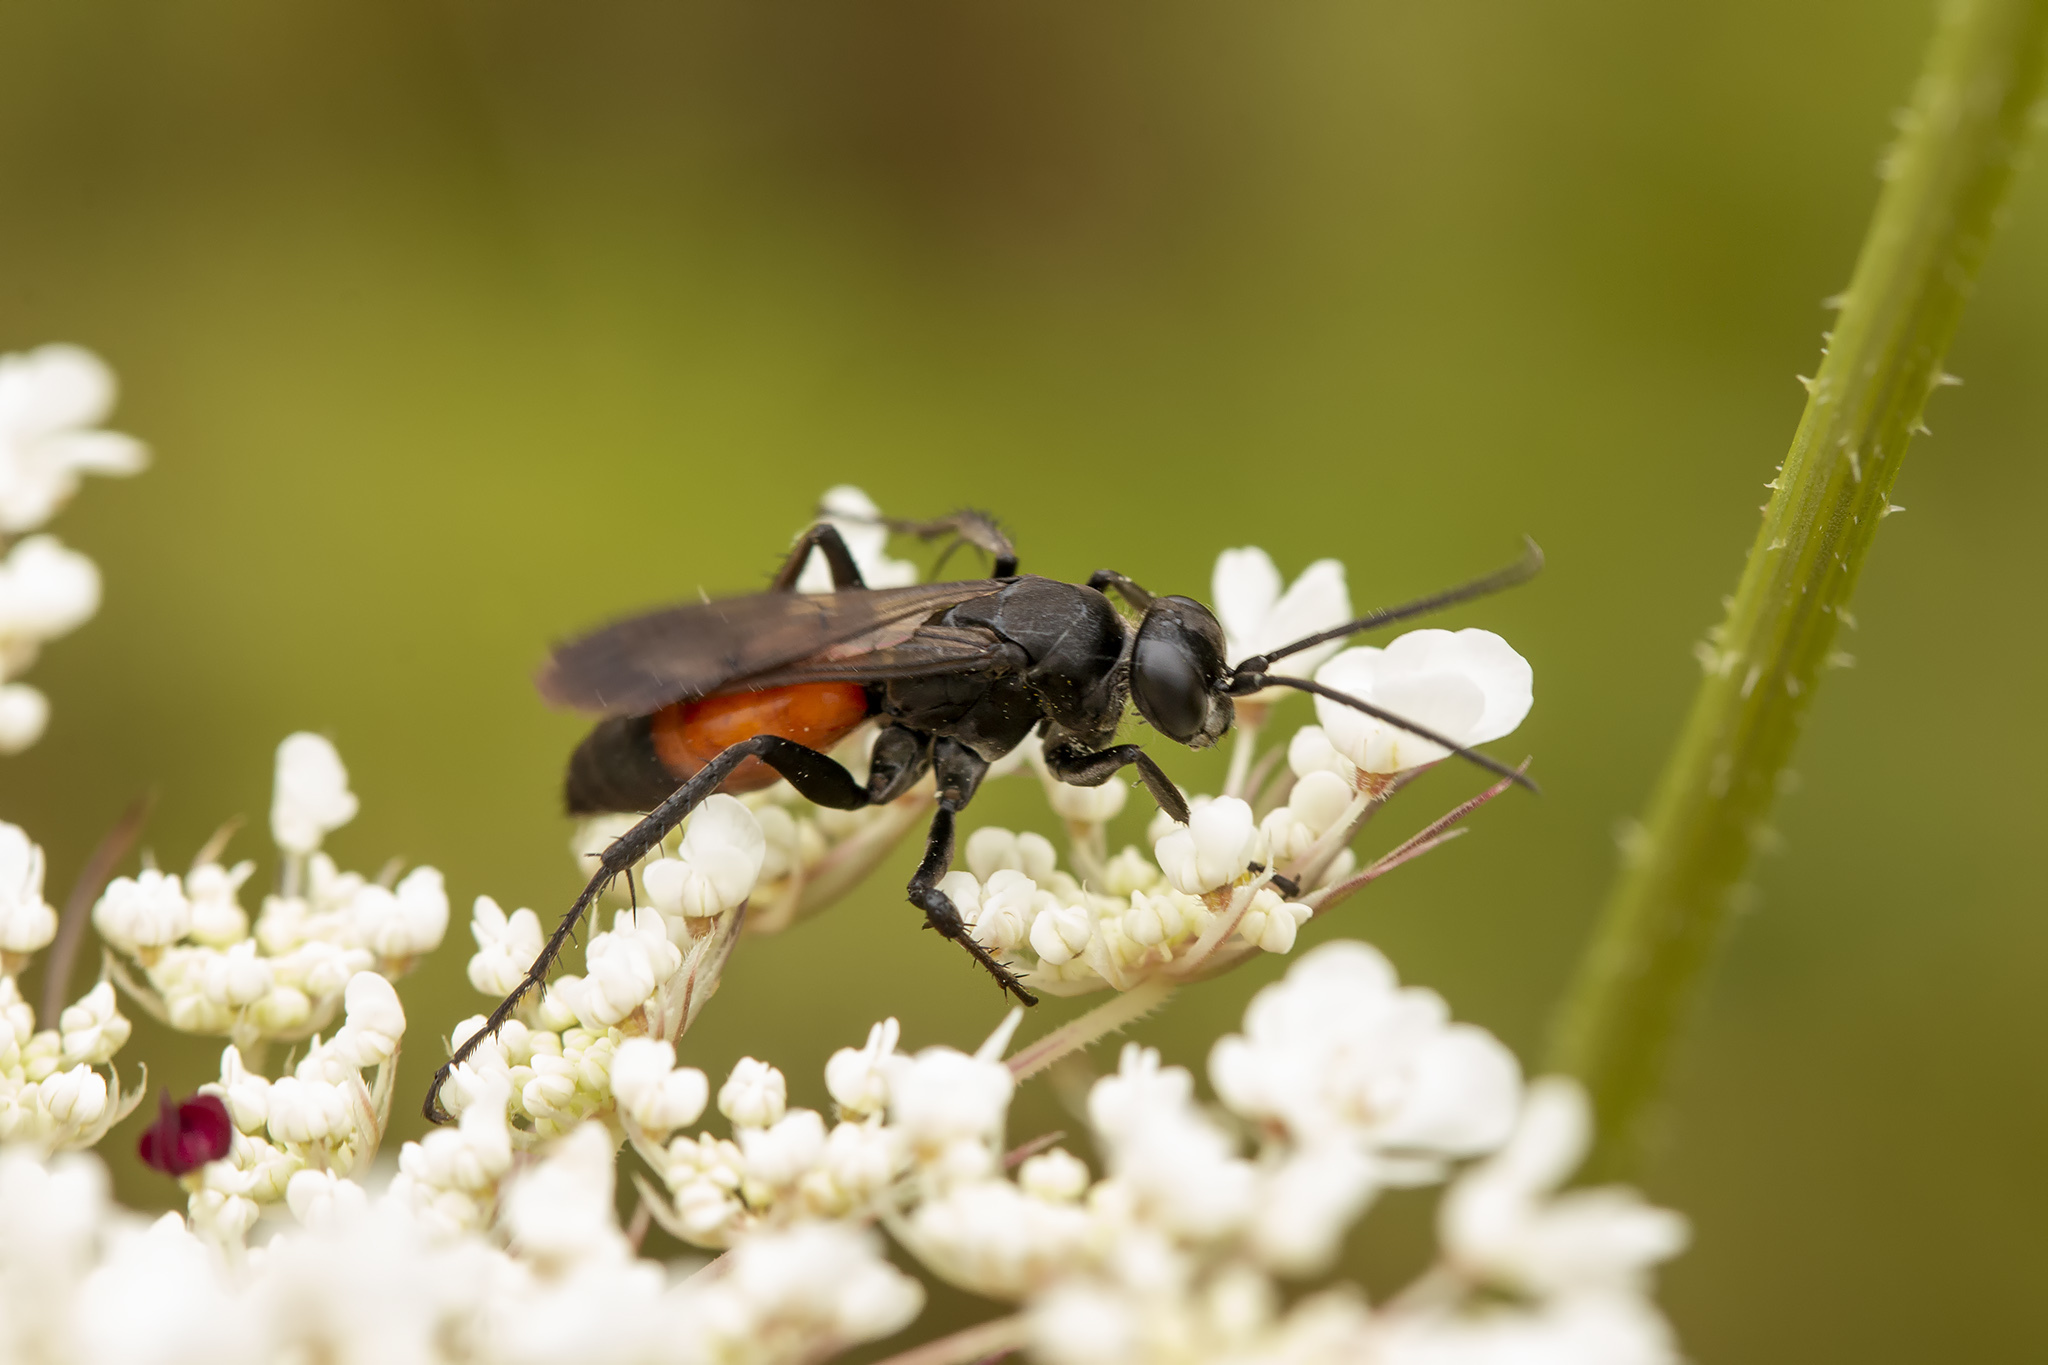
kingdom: Animalia
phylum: Arthropoda
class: Insecta
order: Hymenoptera
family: Pompilidae
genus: Anoplius
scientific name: Anoplius infuscatus
